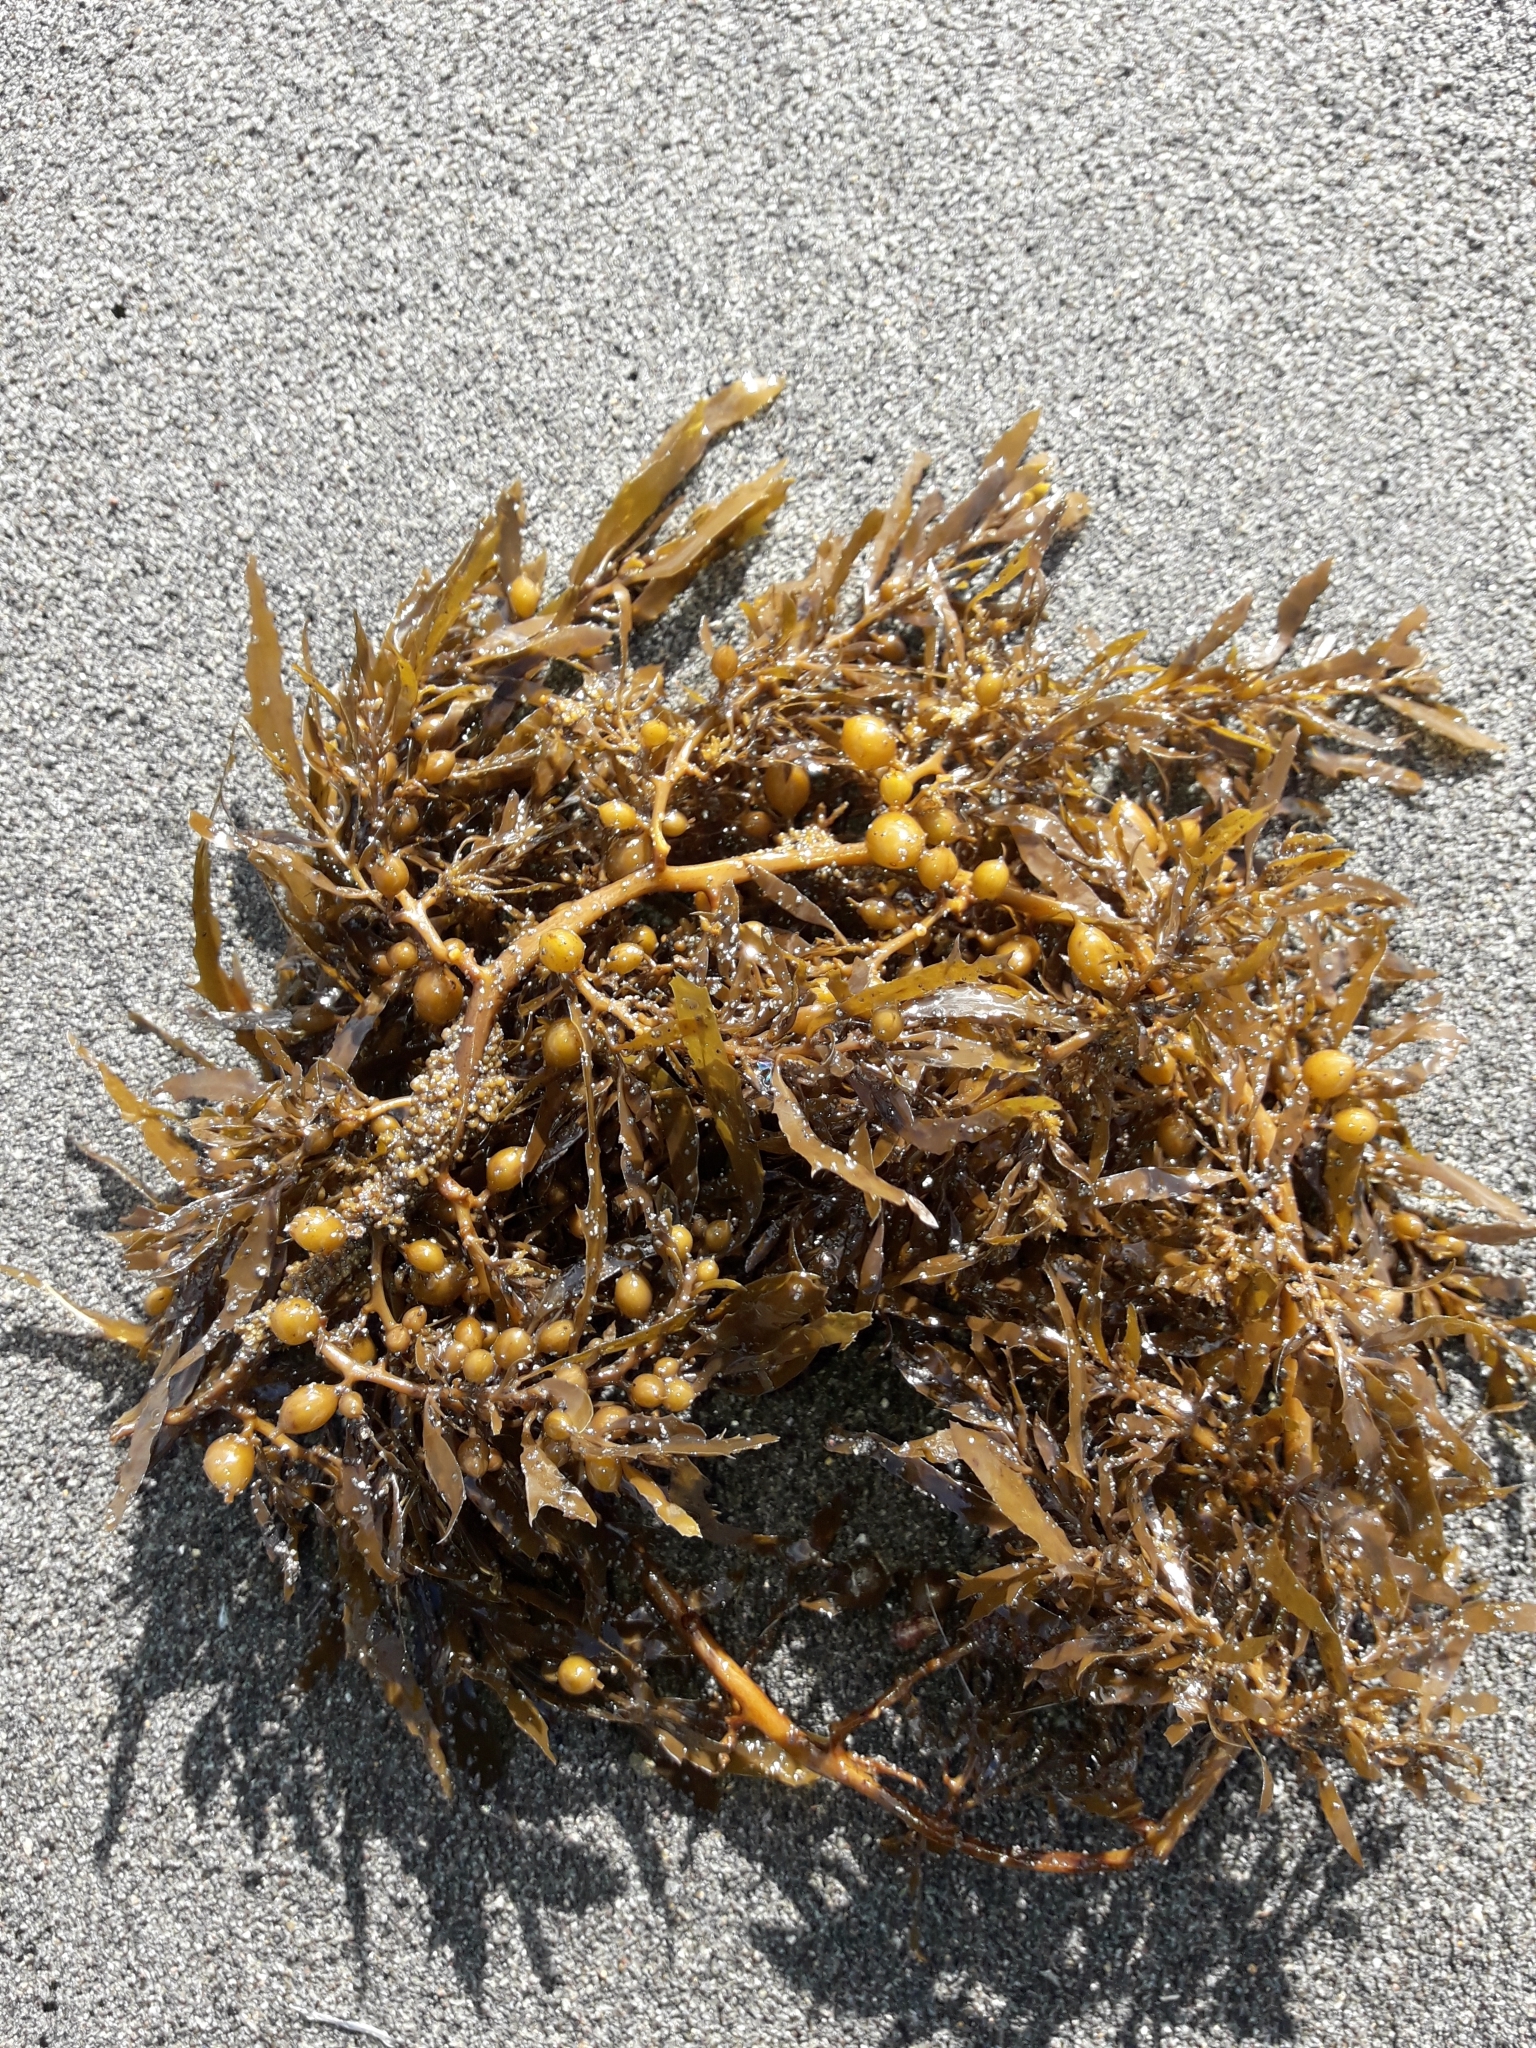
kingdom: Chromista
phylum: Ochrophyta
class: Phaeophyceae
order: Fucales
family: Sargassaceae
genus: Sargassum
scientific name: Sargassum sinclairii
